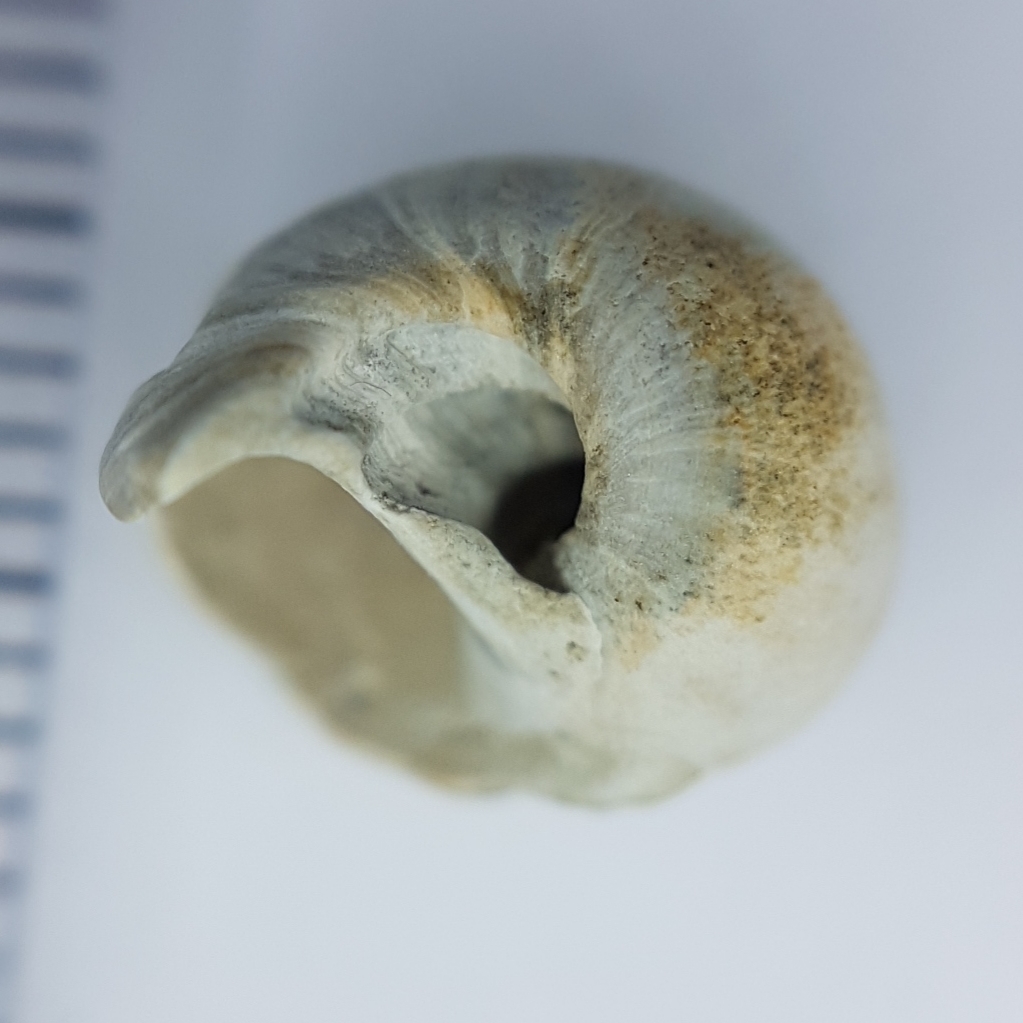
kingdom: Animalia
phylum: Mollusca
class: Gastropoda
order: Littorinimorpha
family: Naticidae
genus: Cochlis
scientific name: Cochlis vittata
